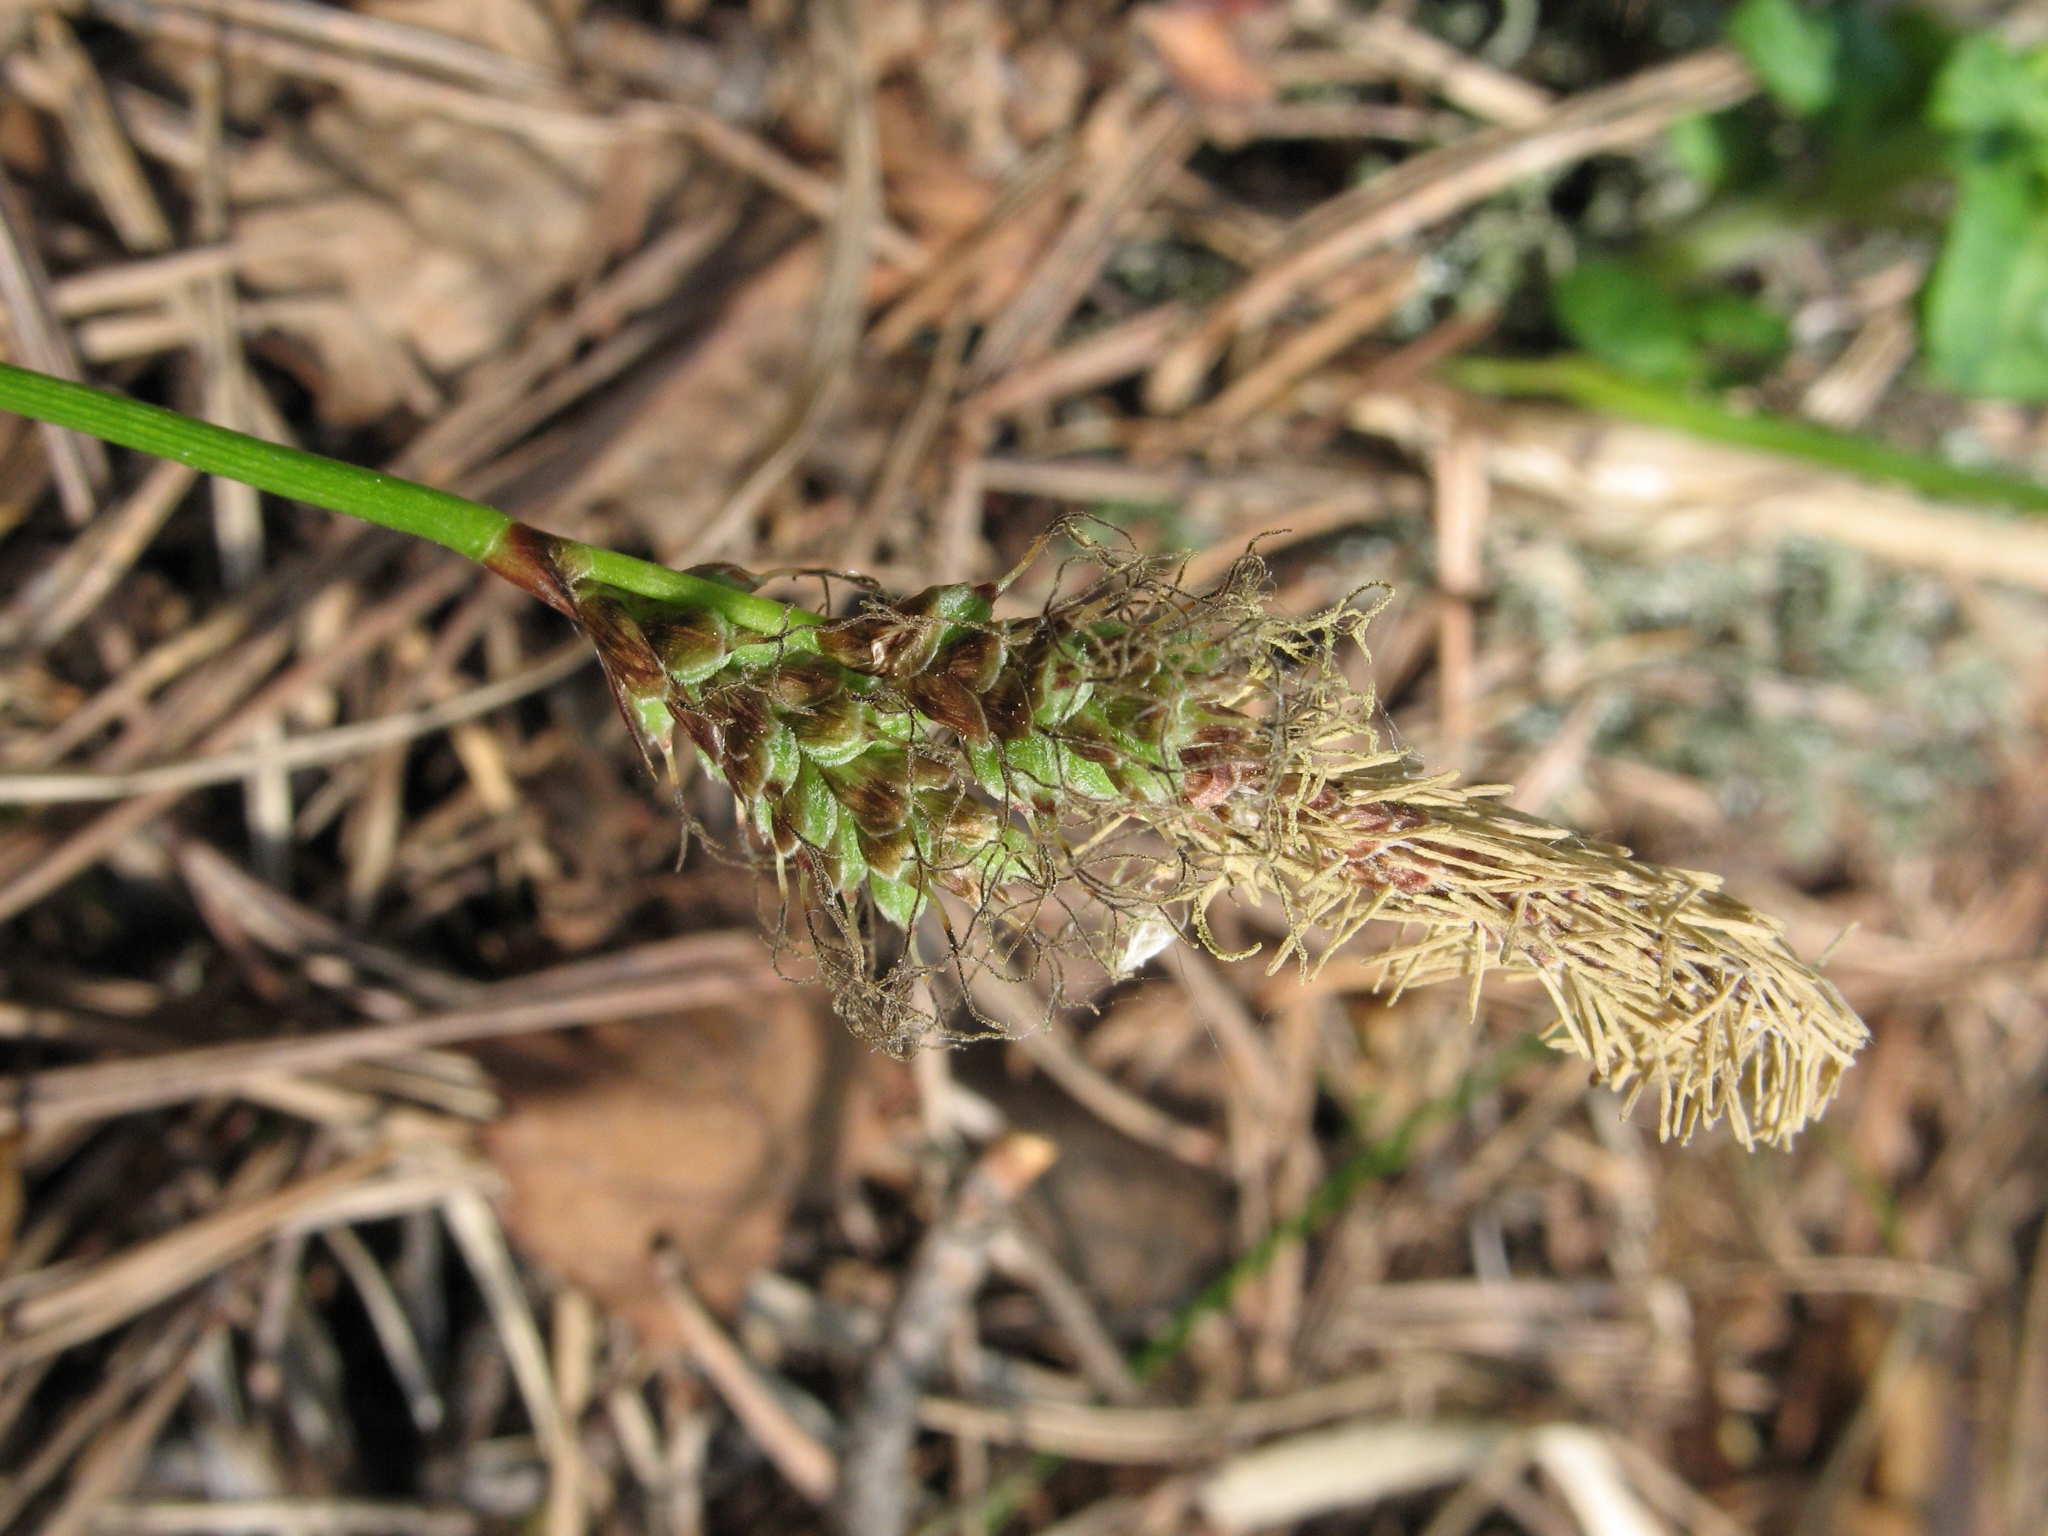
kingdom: Plantae
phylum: Tracheophyta
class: Liliopsida
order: Poales
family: Cyperaceae
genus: Carex
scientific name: Carex ericetorum
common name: Rare spring-sedge
